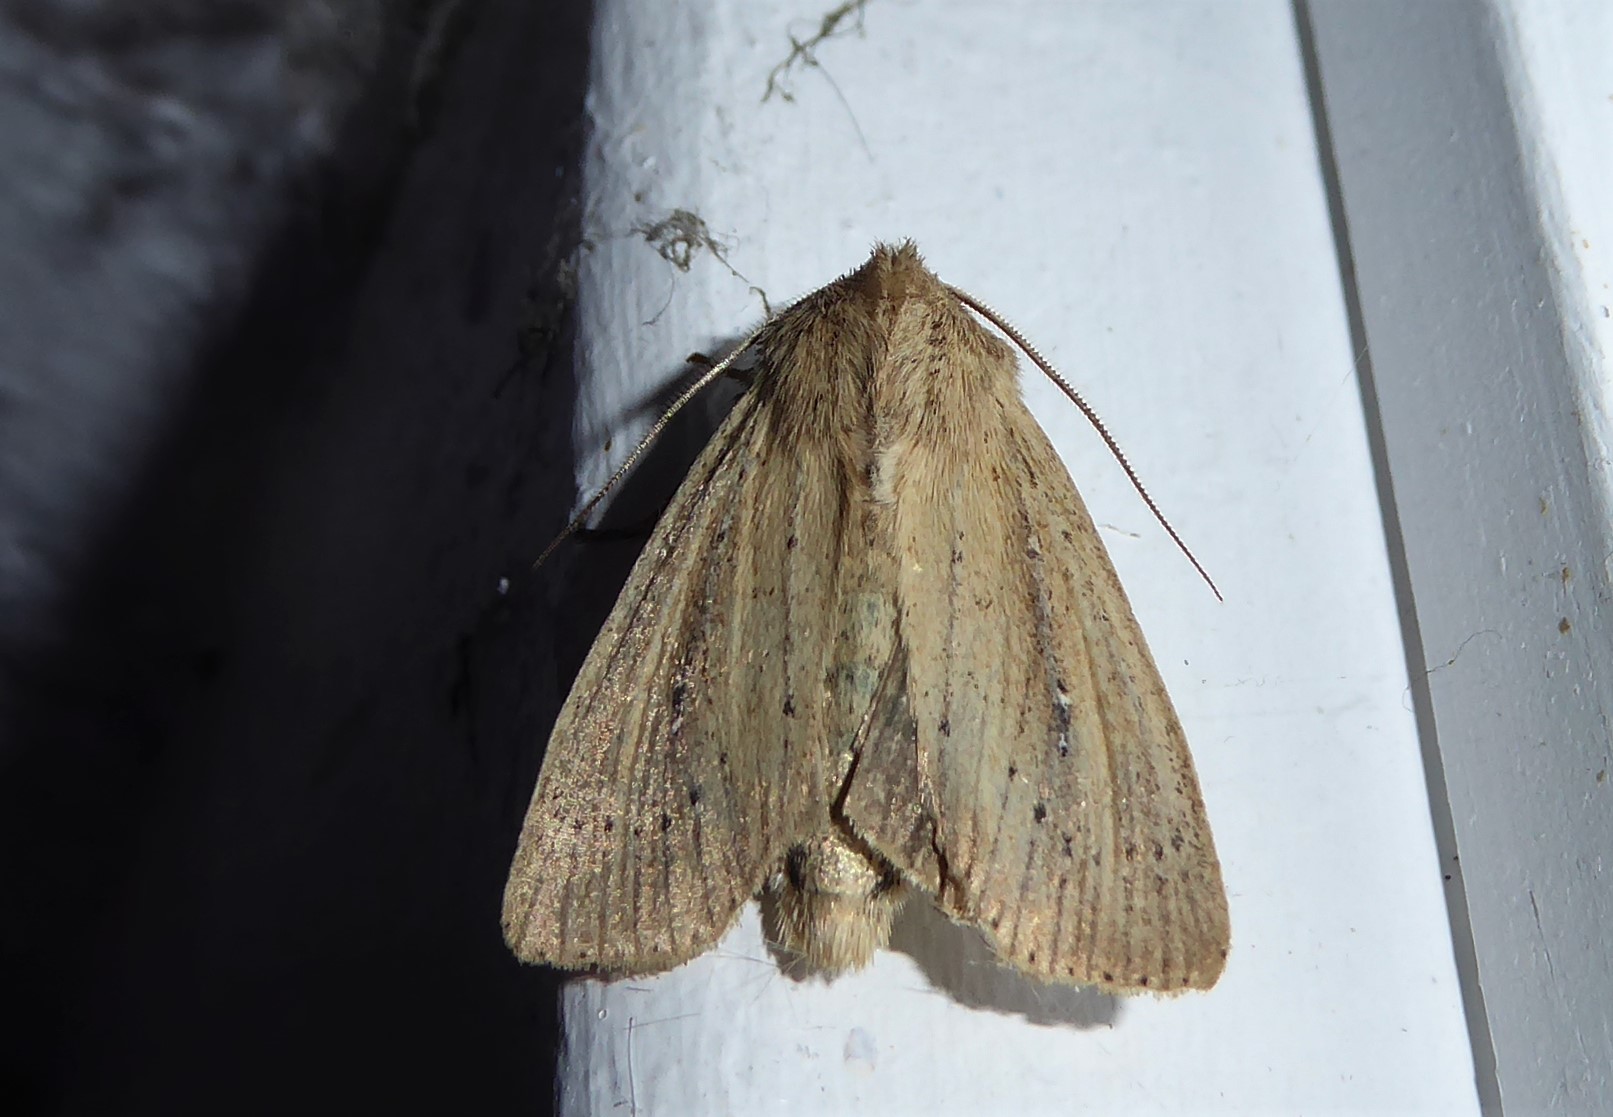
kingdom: Animalia
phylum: Arthropoda
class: Insecta
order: Lepidoptera
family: Noctuidae
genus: Ichneutica
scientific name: Ichneutica
